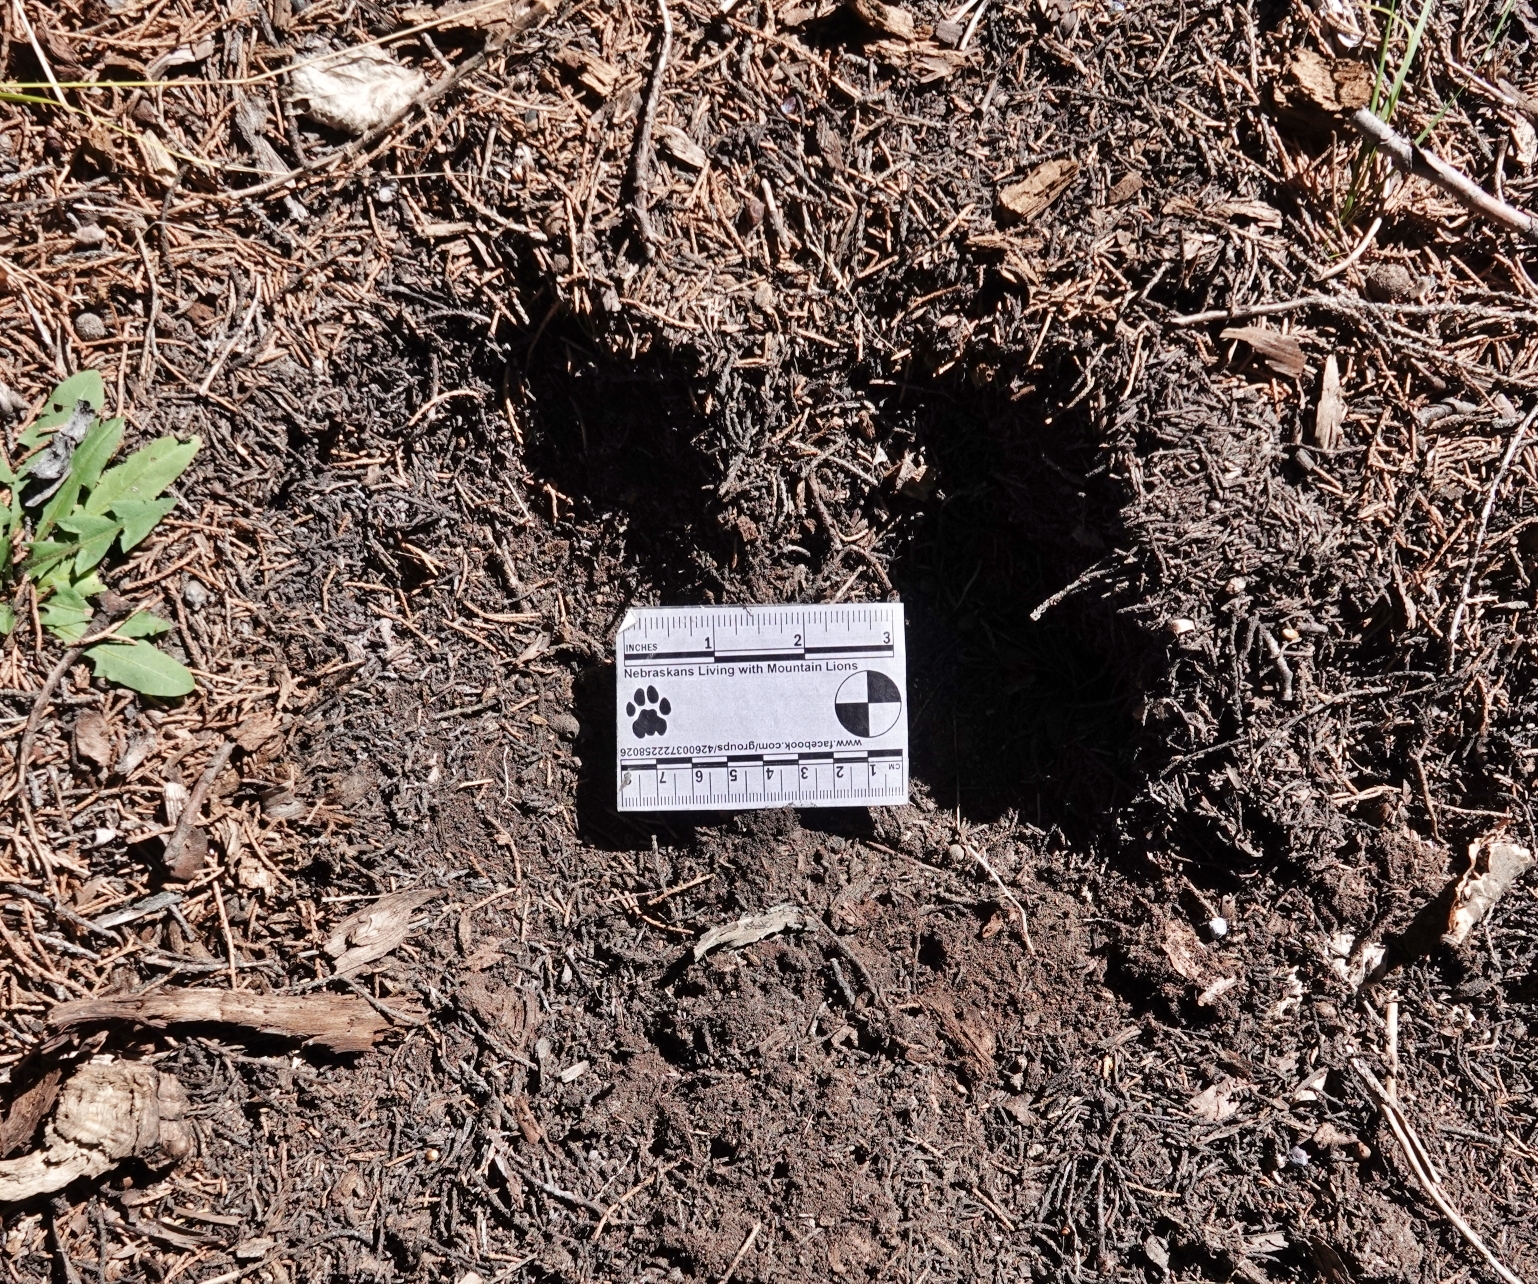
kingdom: Animalia
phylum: Chordata
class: Mammalia
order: Carnivora
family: Felidae
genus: Puma
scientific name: Puma concolor
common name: Puma
